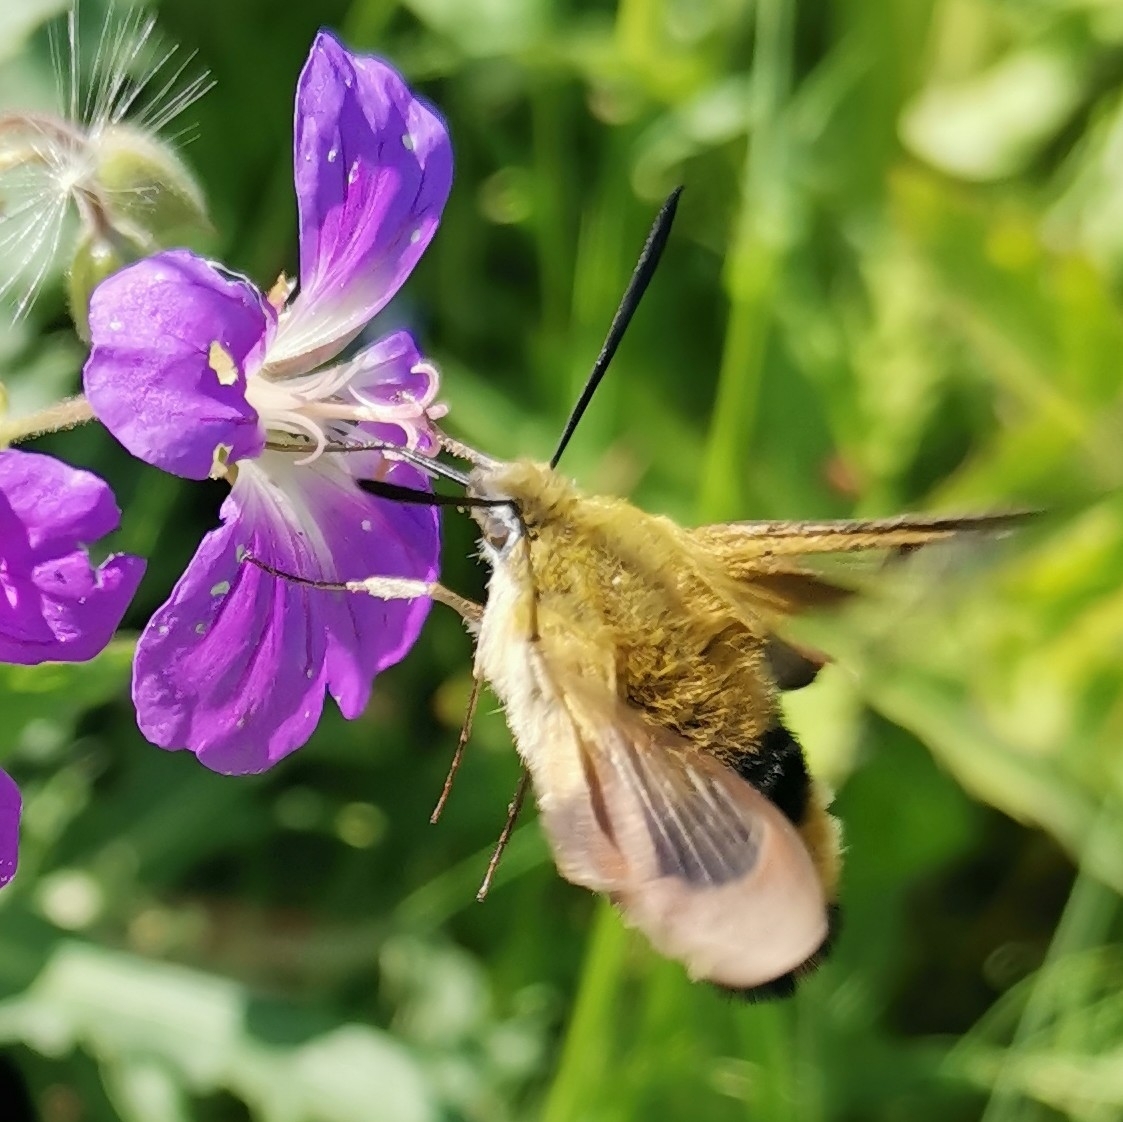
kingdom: Animalia
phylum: Arthropoda
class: Insecta
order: Lepidoptera
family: Sphingidae
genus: Hemaris
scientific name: Hemaris fuciformis
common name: Broad-bordered bee hawk-moth
